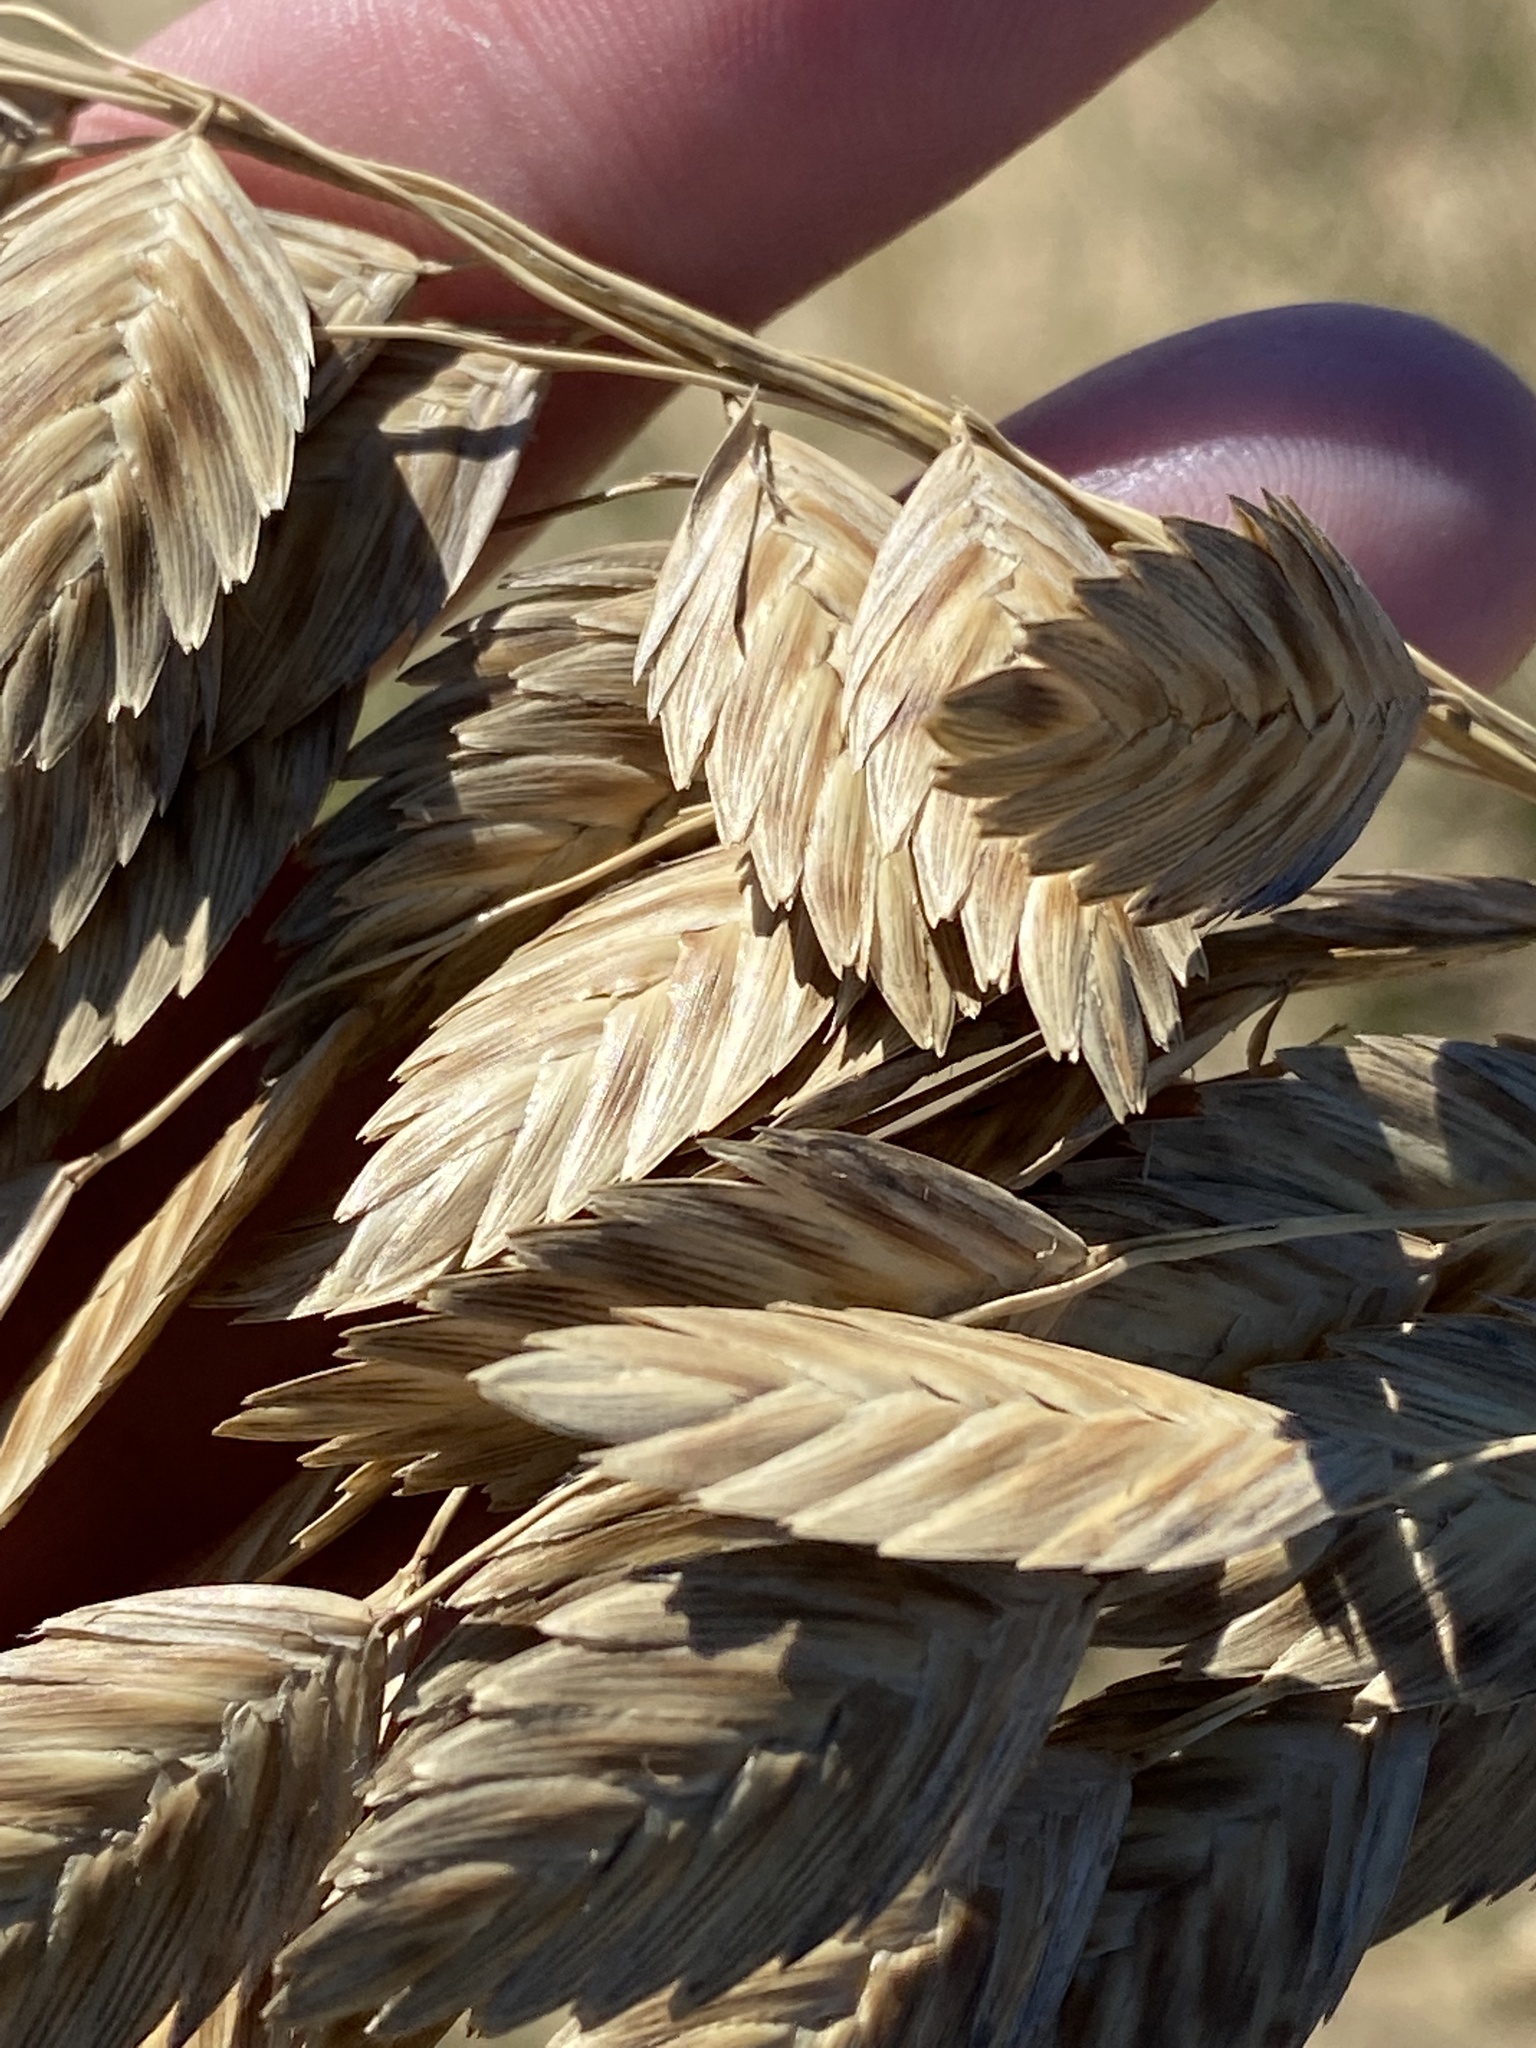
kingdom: Plantae
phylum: Tracheophyta
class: Liliopsida
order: Poales
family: Poaceae
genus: Uniola
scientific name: Uniola paniculata
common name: Seaside-oats
